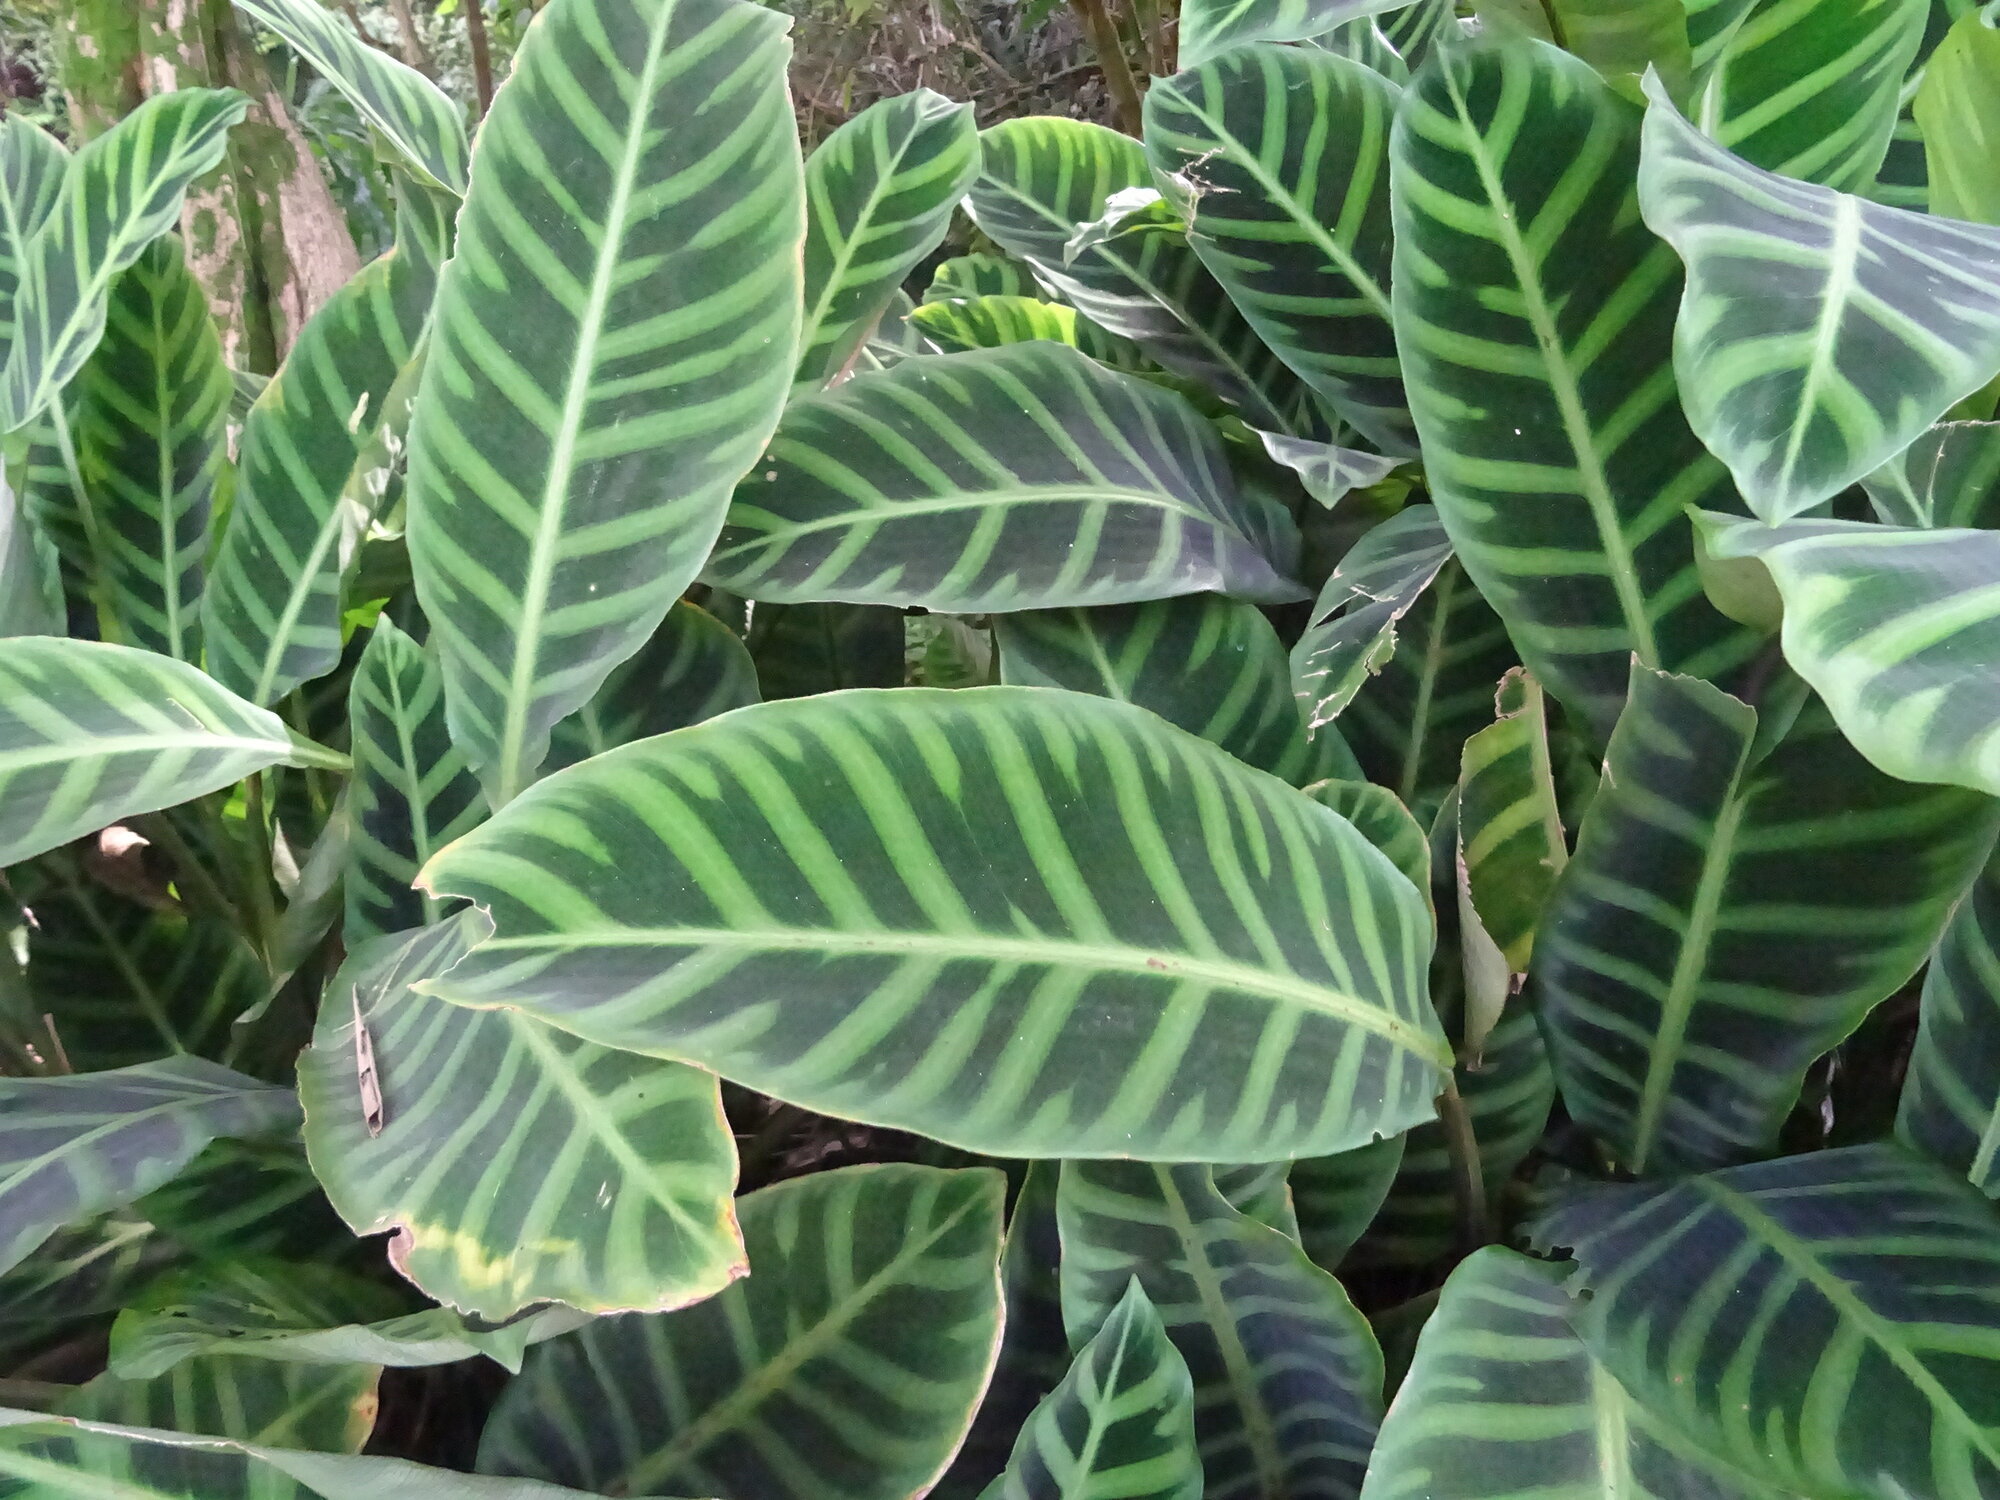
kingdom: Plantae
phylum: Tracheophyta
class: Liliopsida
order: Zingiberales
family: Marantaceae
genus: Goeppertia
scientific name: Goeppertia zebrina
